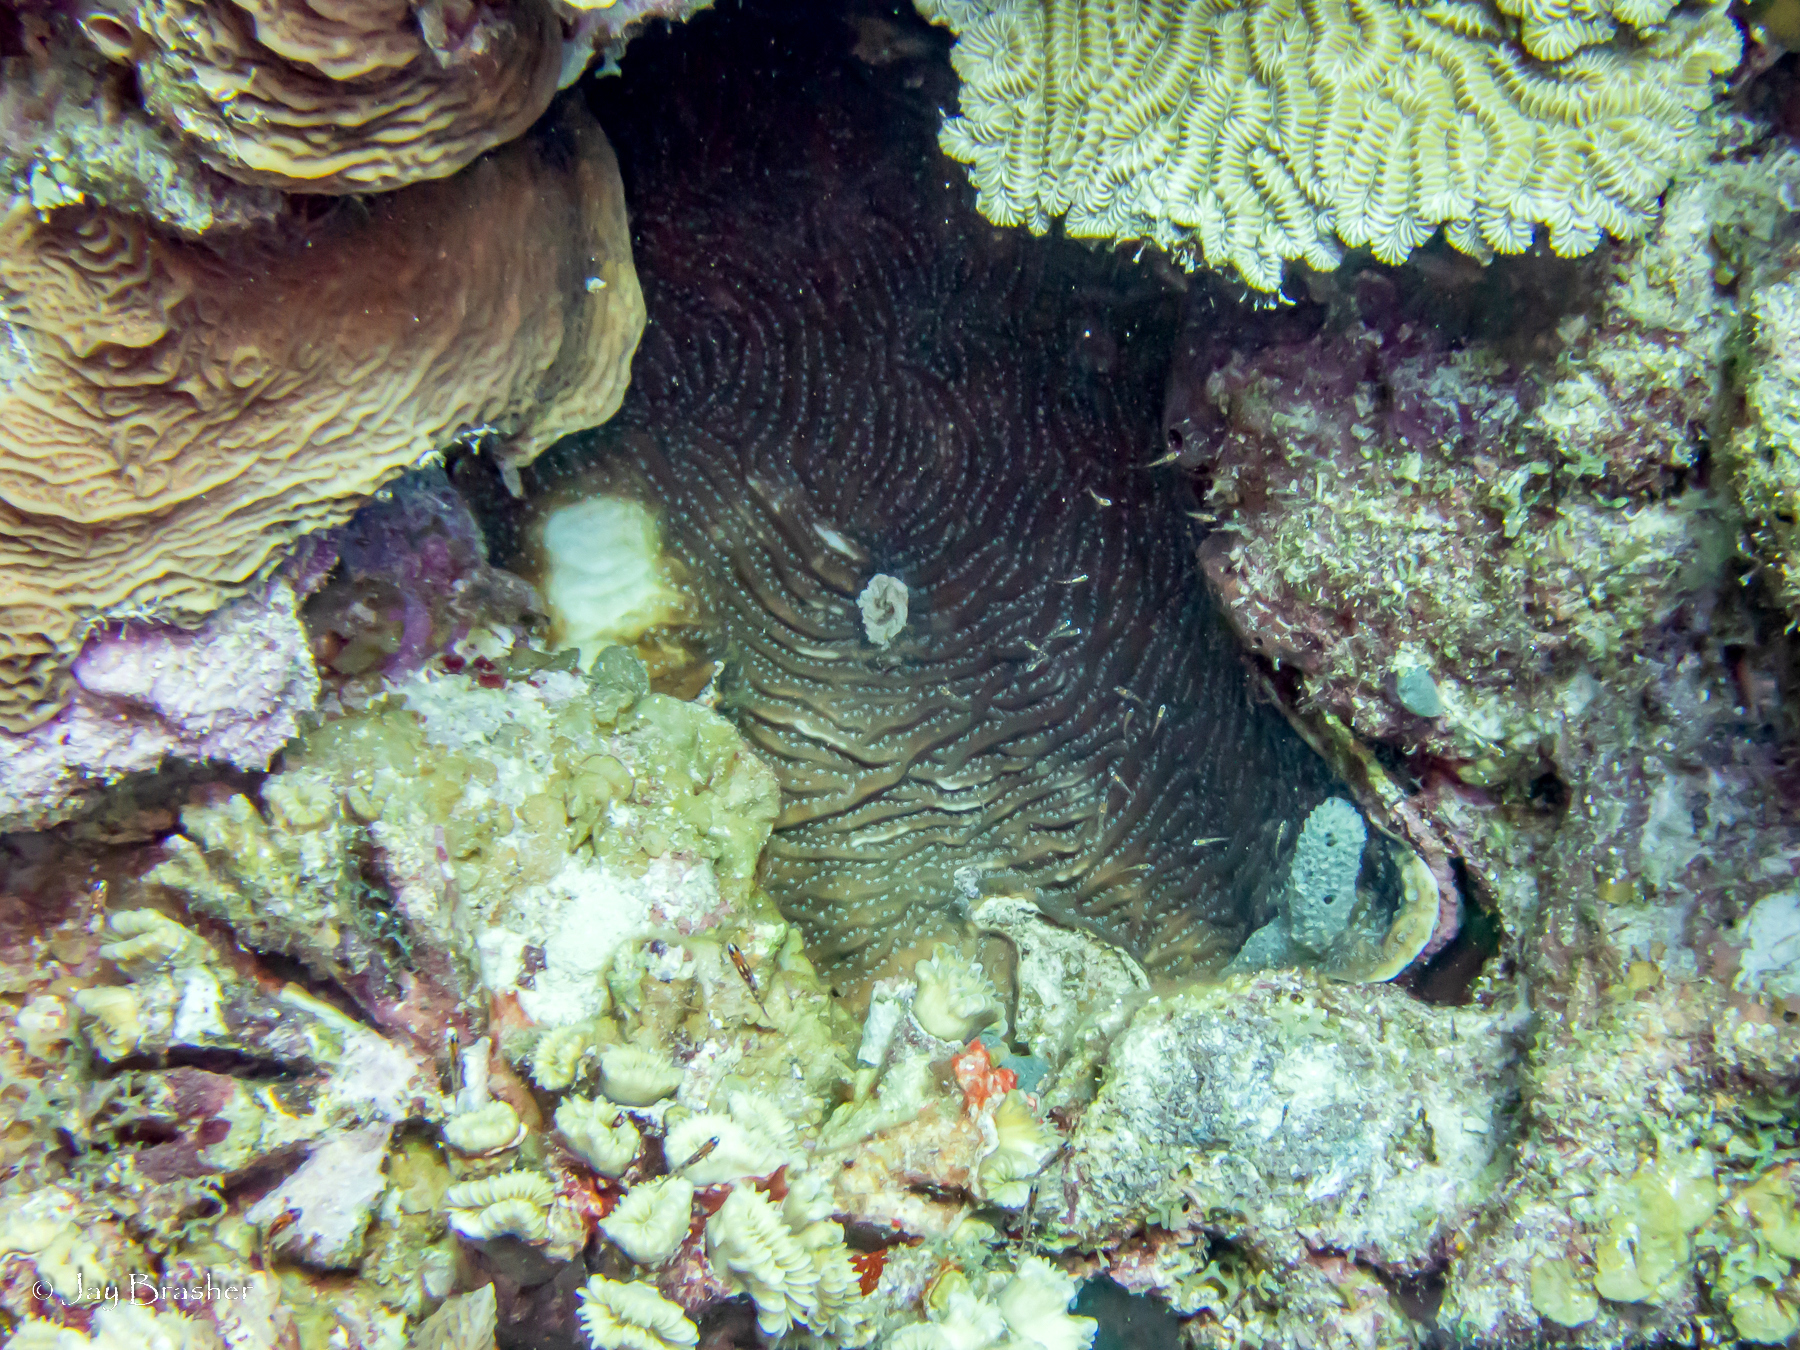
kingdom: Animalia
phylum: Cnidaria
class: Anthozoa
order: Scleractinia
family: Meandrinidae
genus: Meandrina
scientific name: Meandrina meandrites
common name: Maze coral
